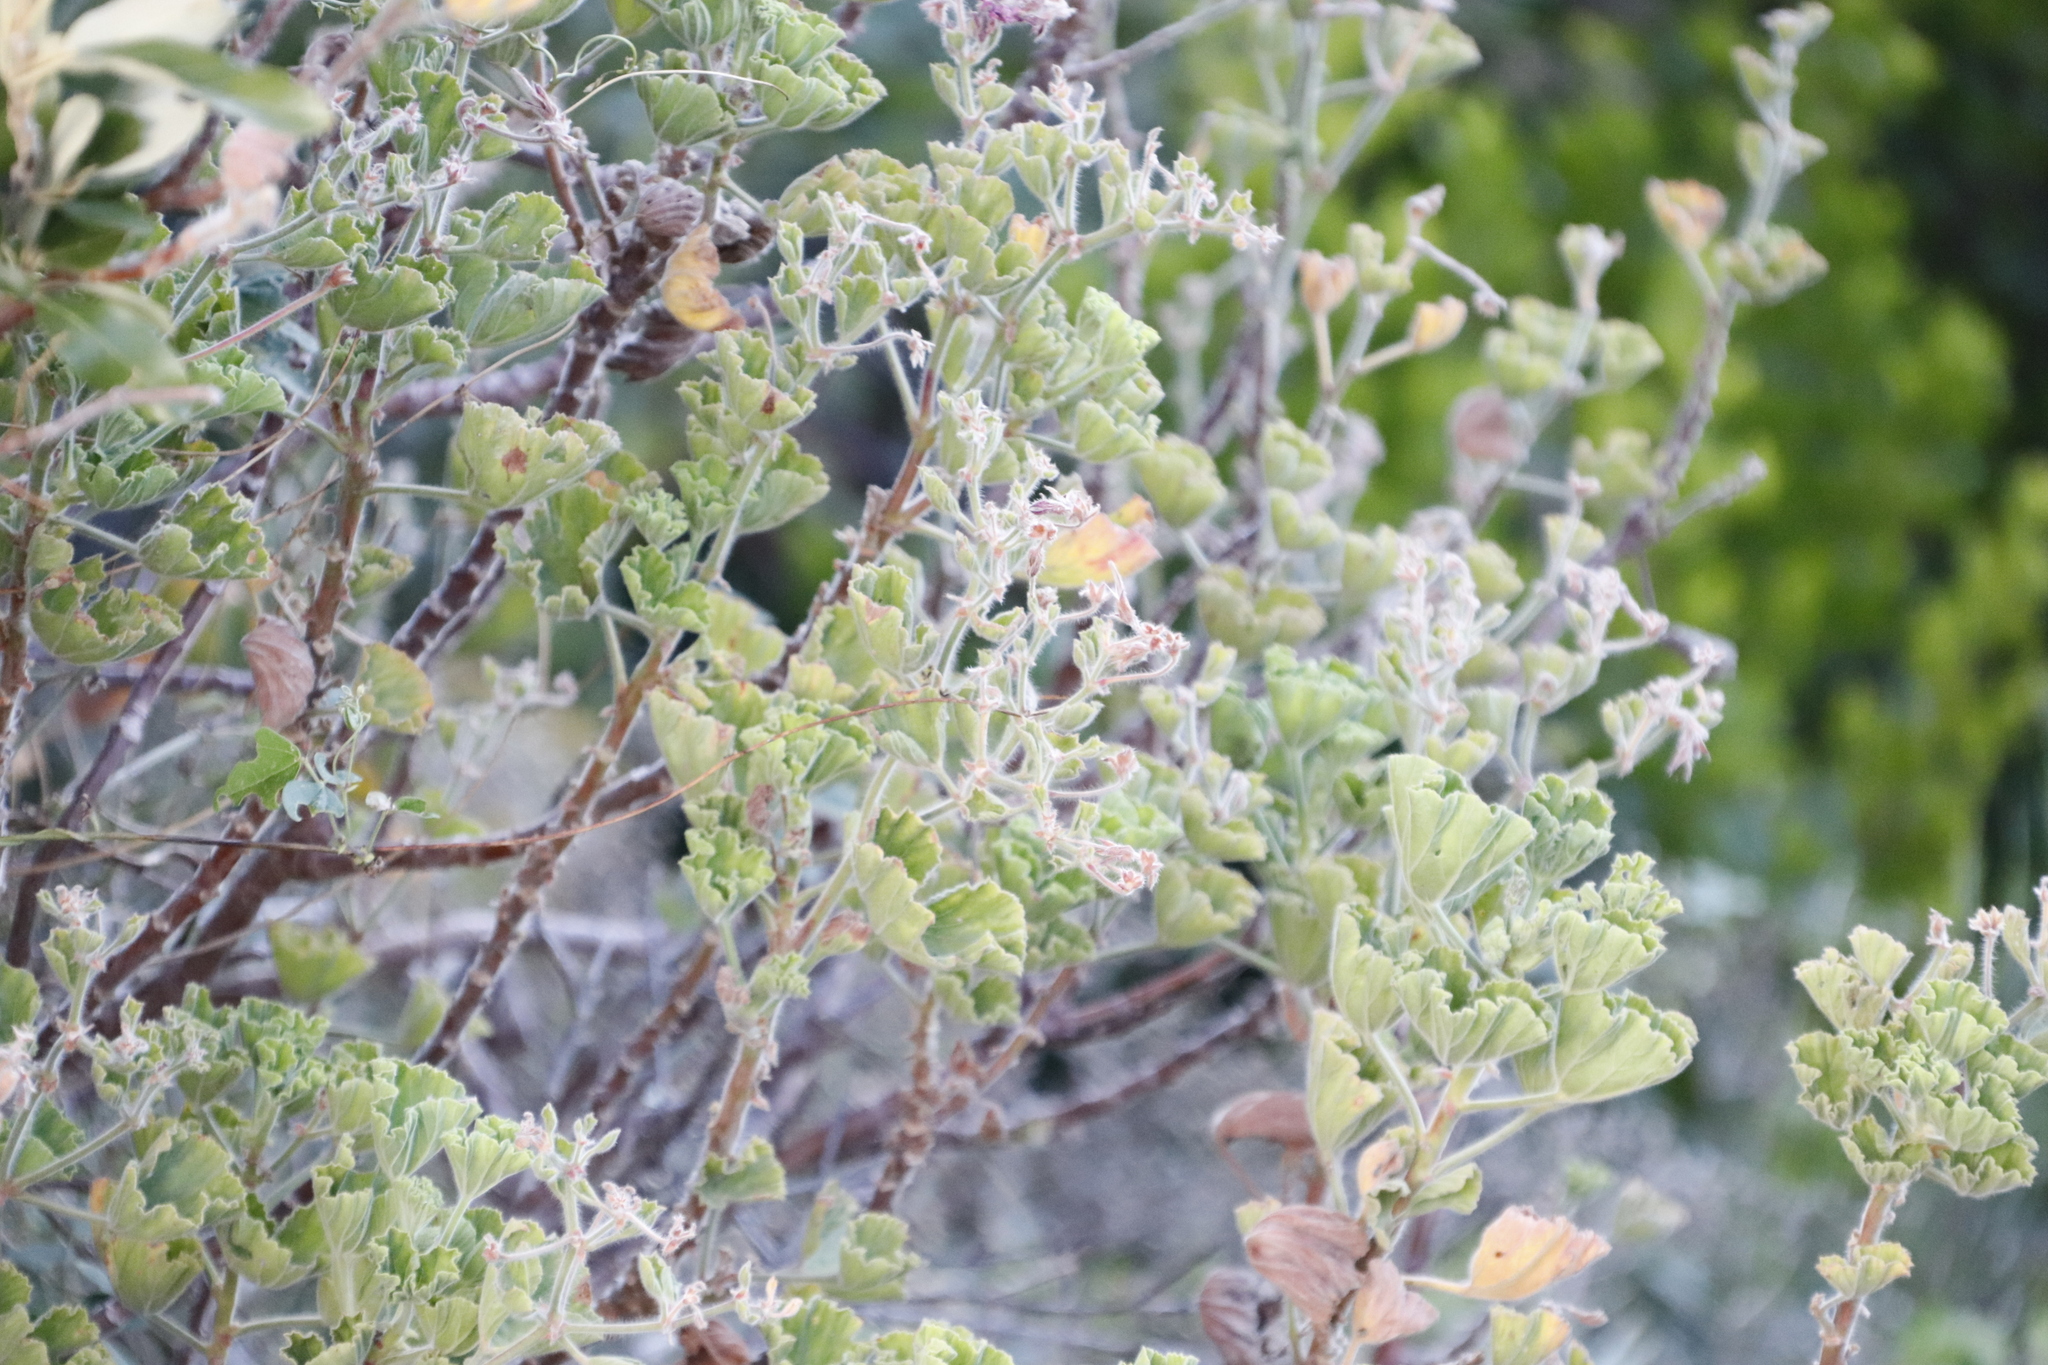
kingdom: Plantae
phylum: Tracheophyta
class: Magnoliopsida
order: Geraniales
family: Geraniaceae
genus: Pelargonium
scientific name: Pelargonium cucullatum
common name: Tree pelargonium
